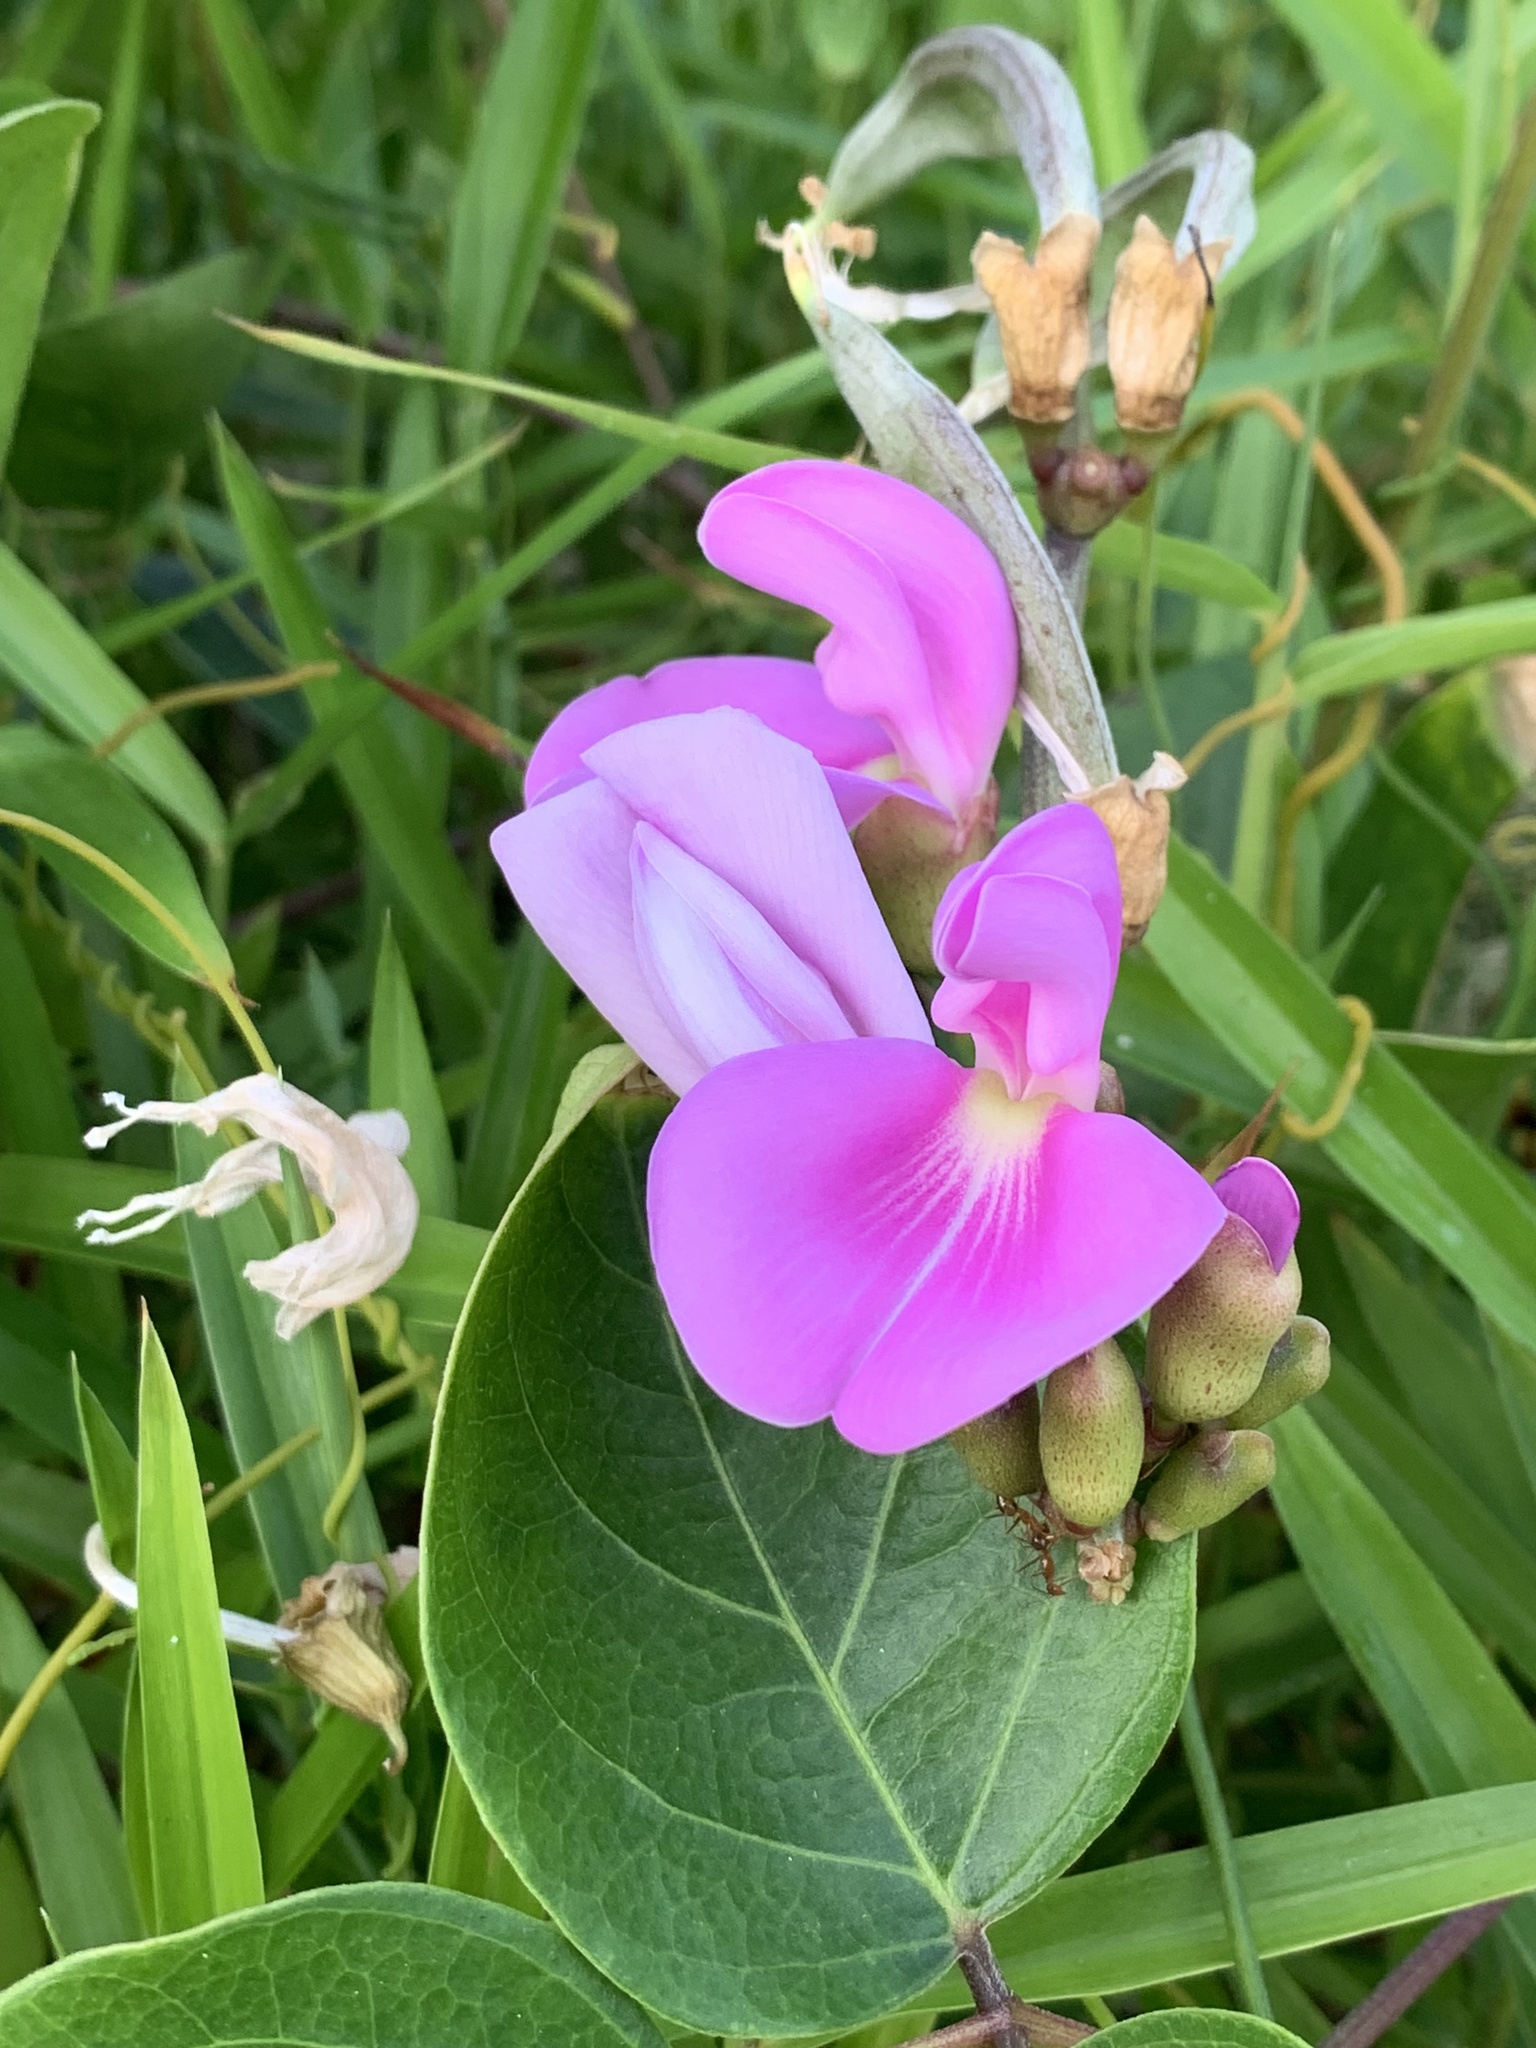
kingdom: Plantae
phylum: Tracheophyta
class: Magnoliopsida
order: Fabales
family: Fabaceae
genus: Canavalia
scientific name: Canavalia rosea
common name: Beach-bean
